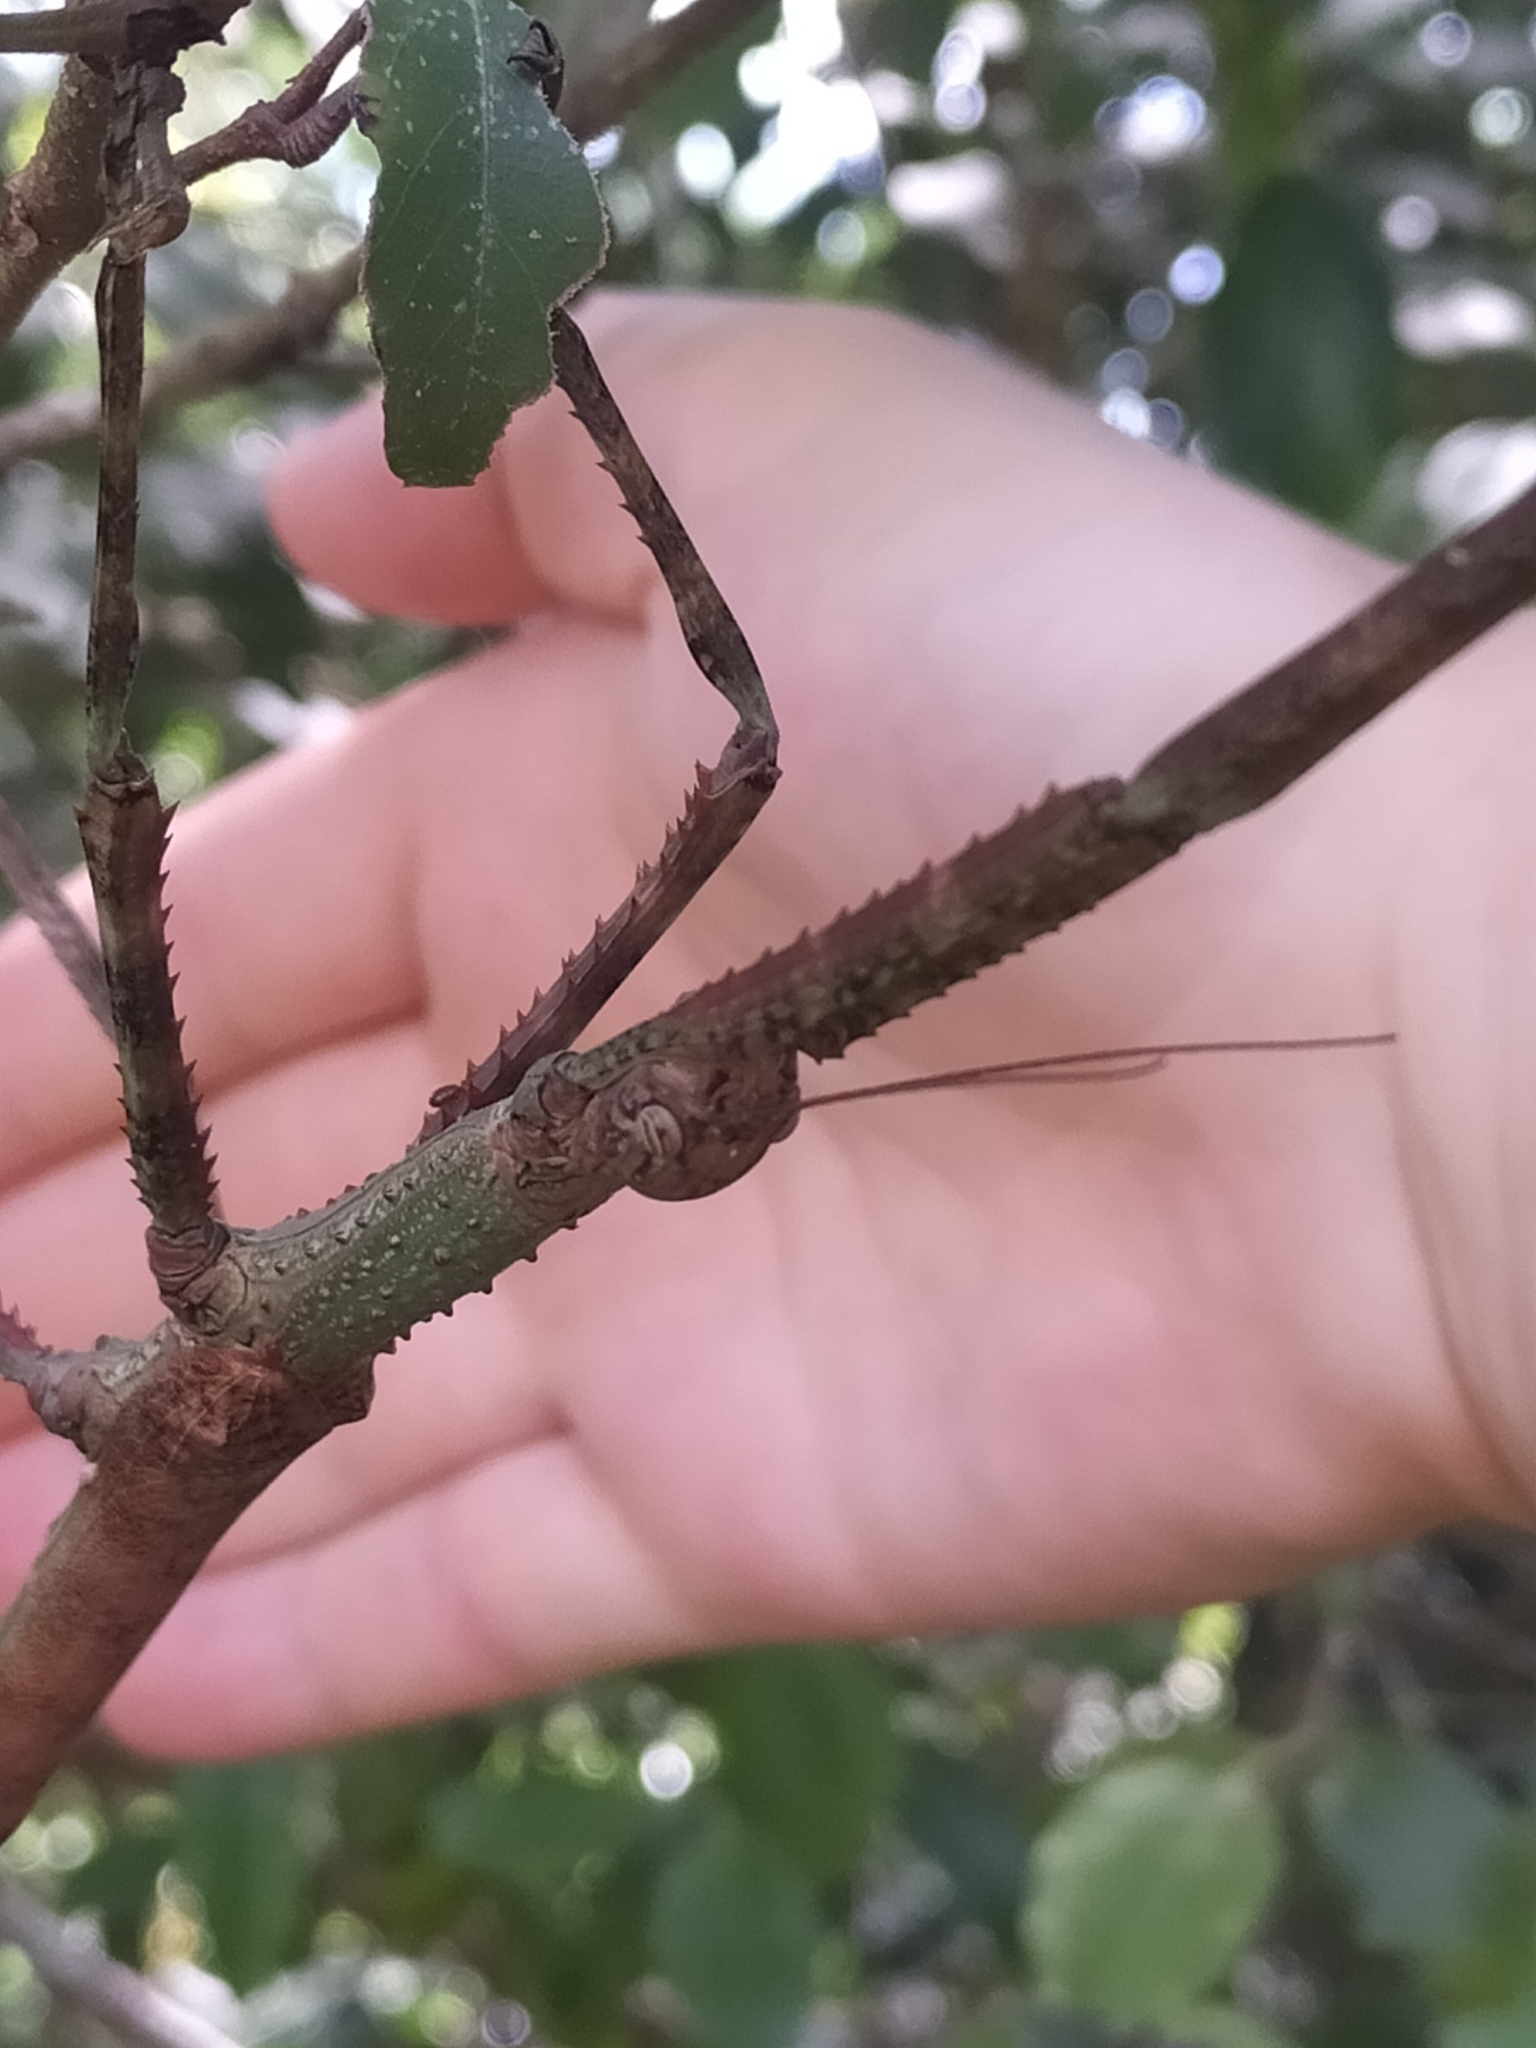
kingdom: Animalia
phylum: Arthropoda
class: Insecta
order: Phasmida
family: Phasmatidae
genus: Anchiale
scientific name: Anchiale briareus
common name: Strong stick insect
